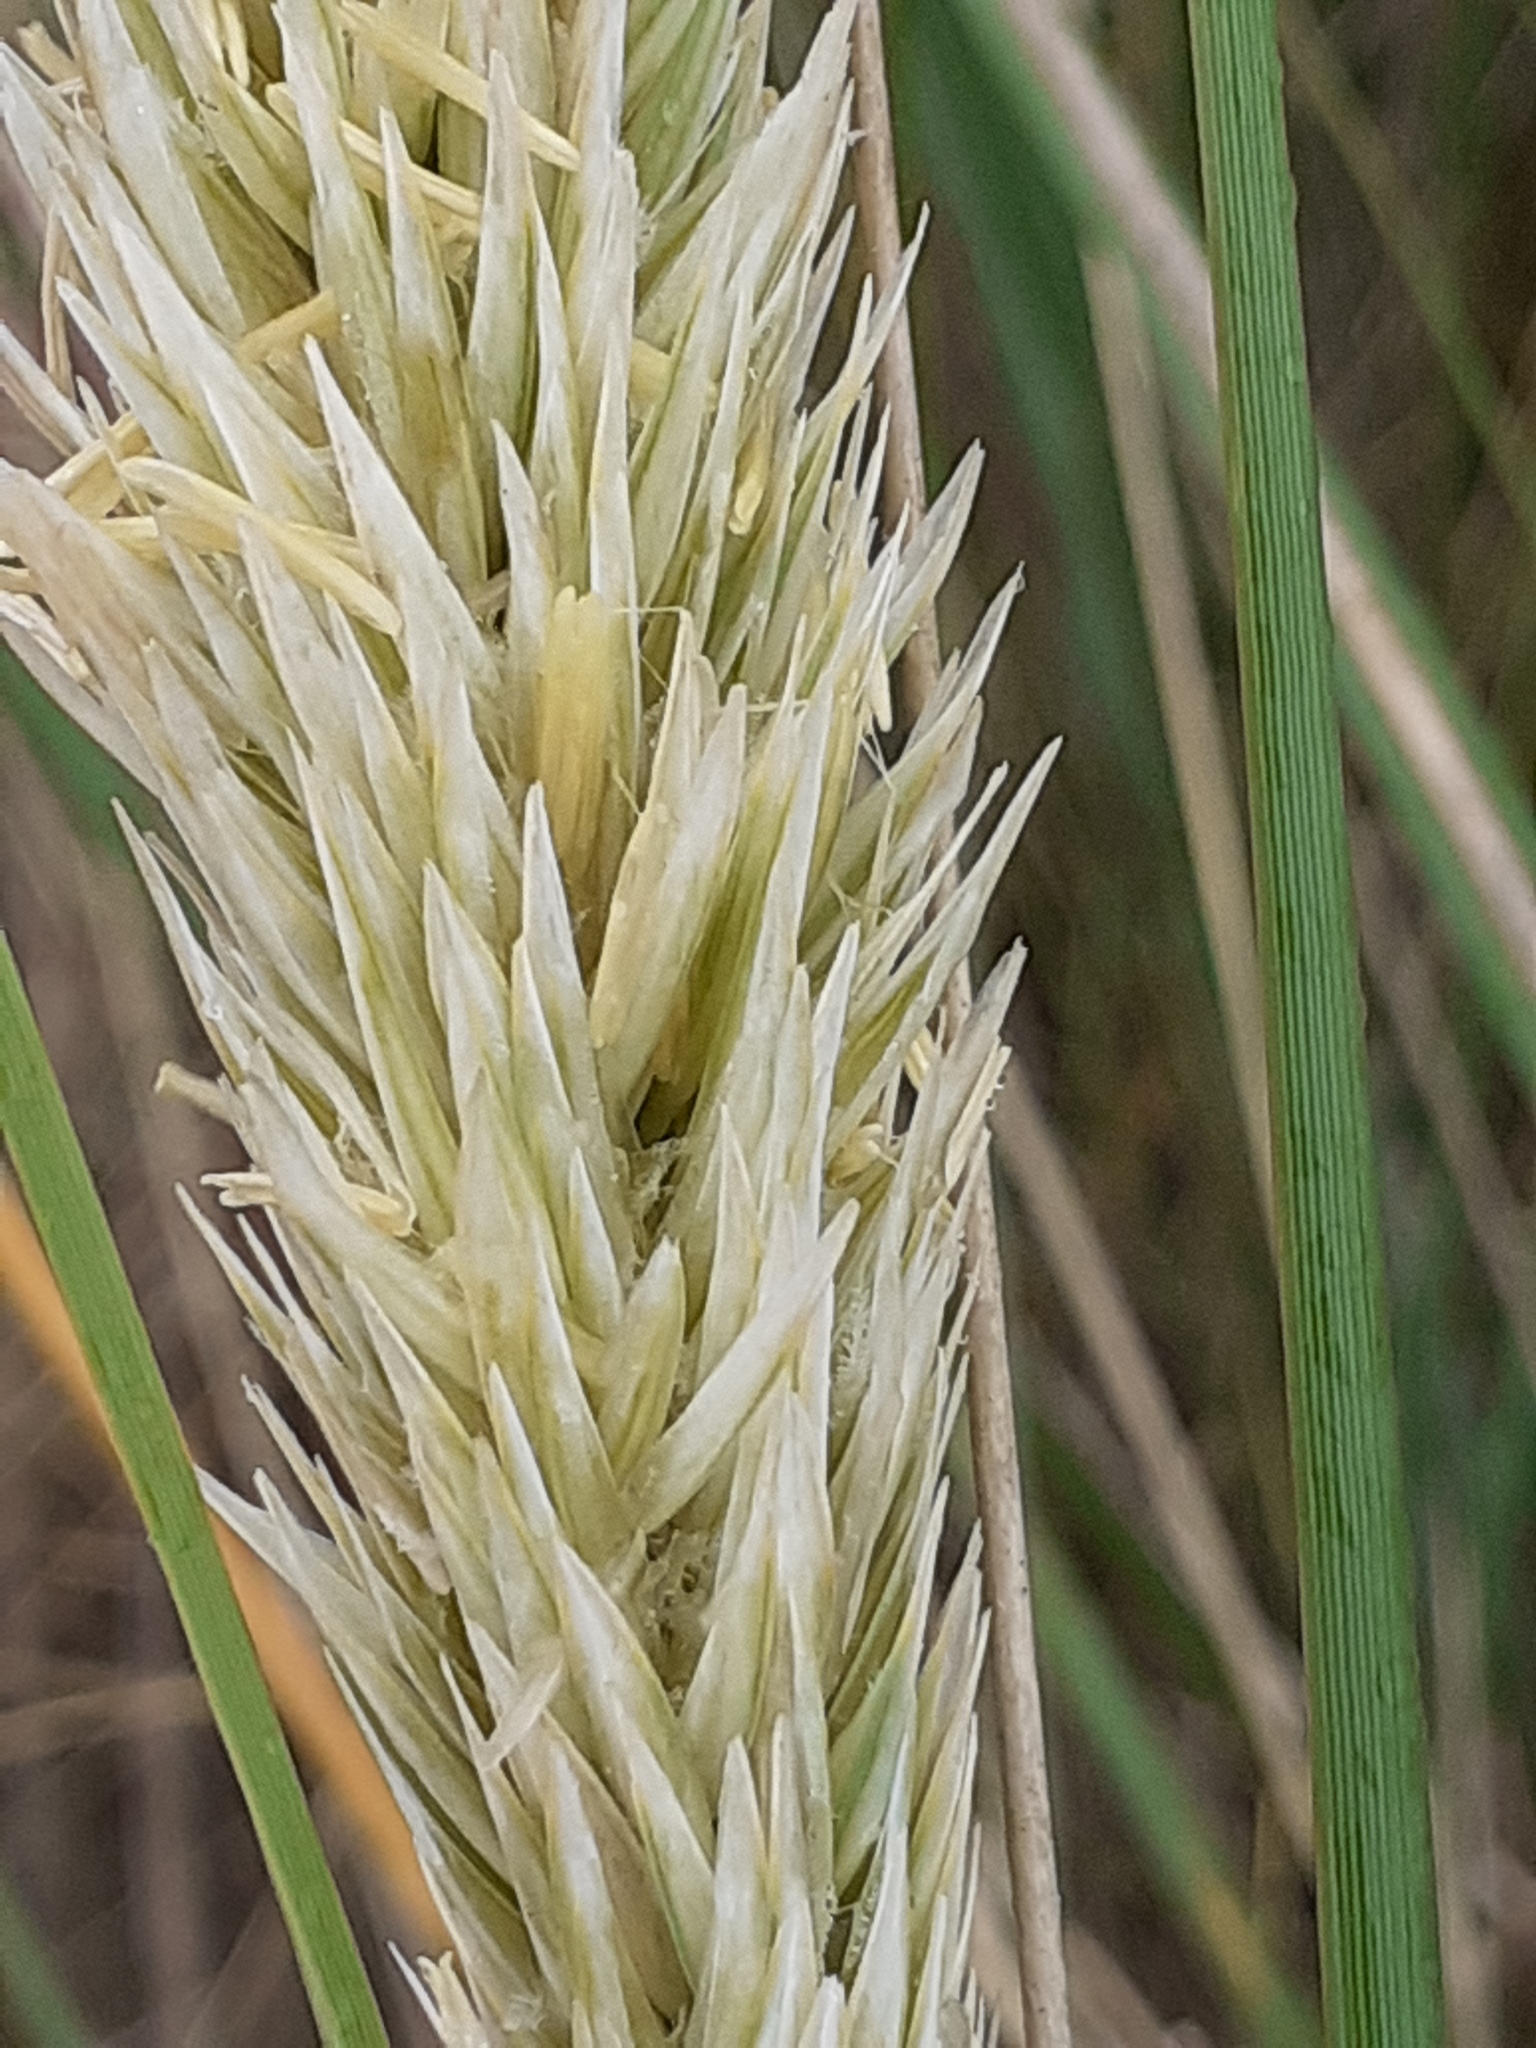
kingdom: Plantae
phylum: Tracheophyta
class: Liliopsida
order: Poales
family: Poaceae
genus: Calamagrostis
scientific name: Calamagrostis arenaria
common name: European beachgrass
